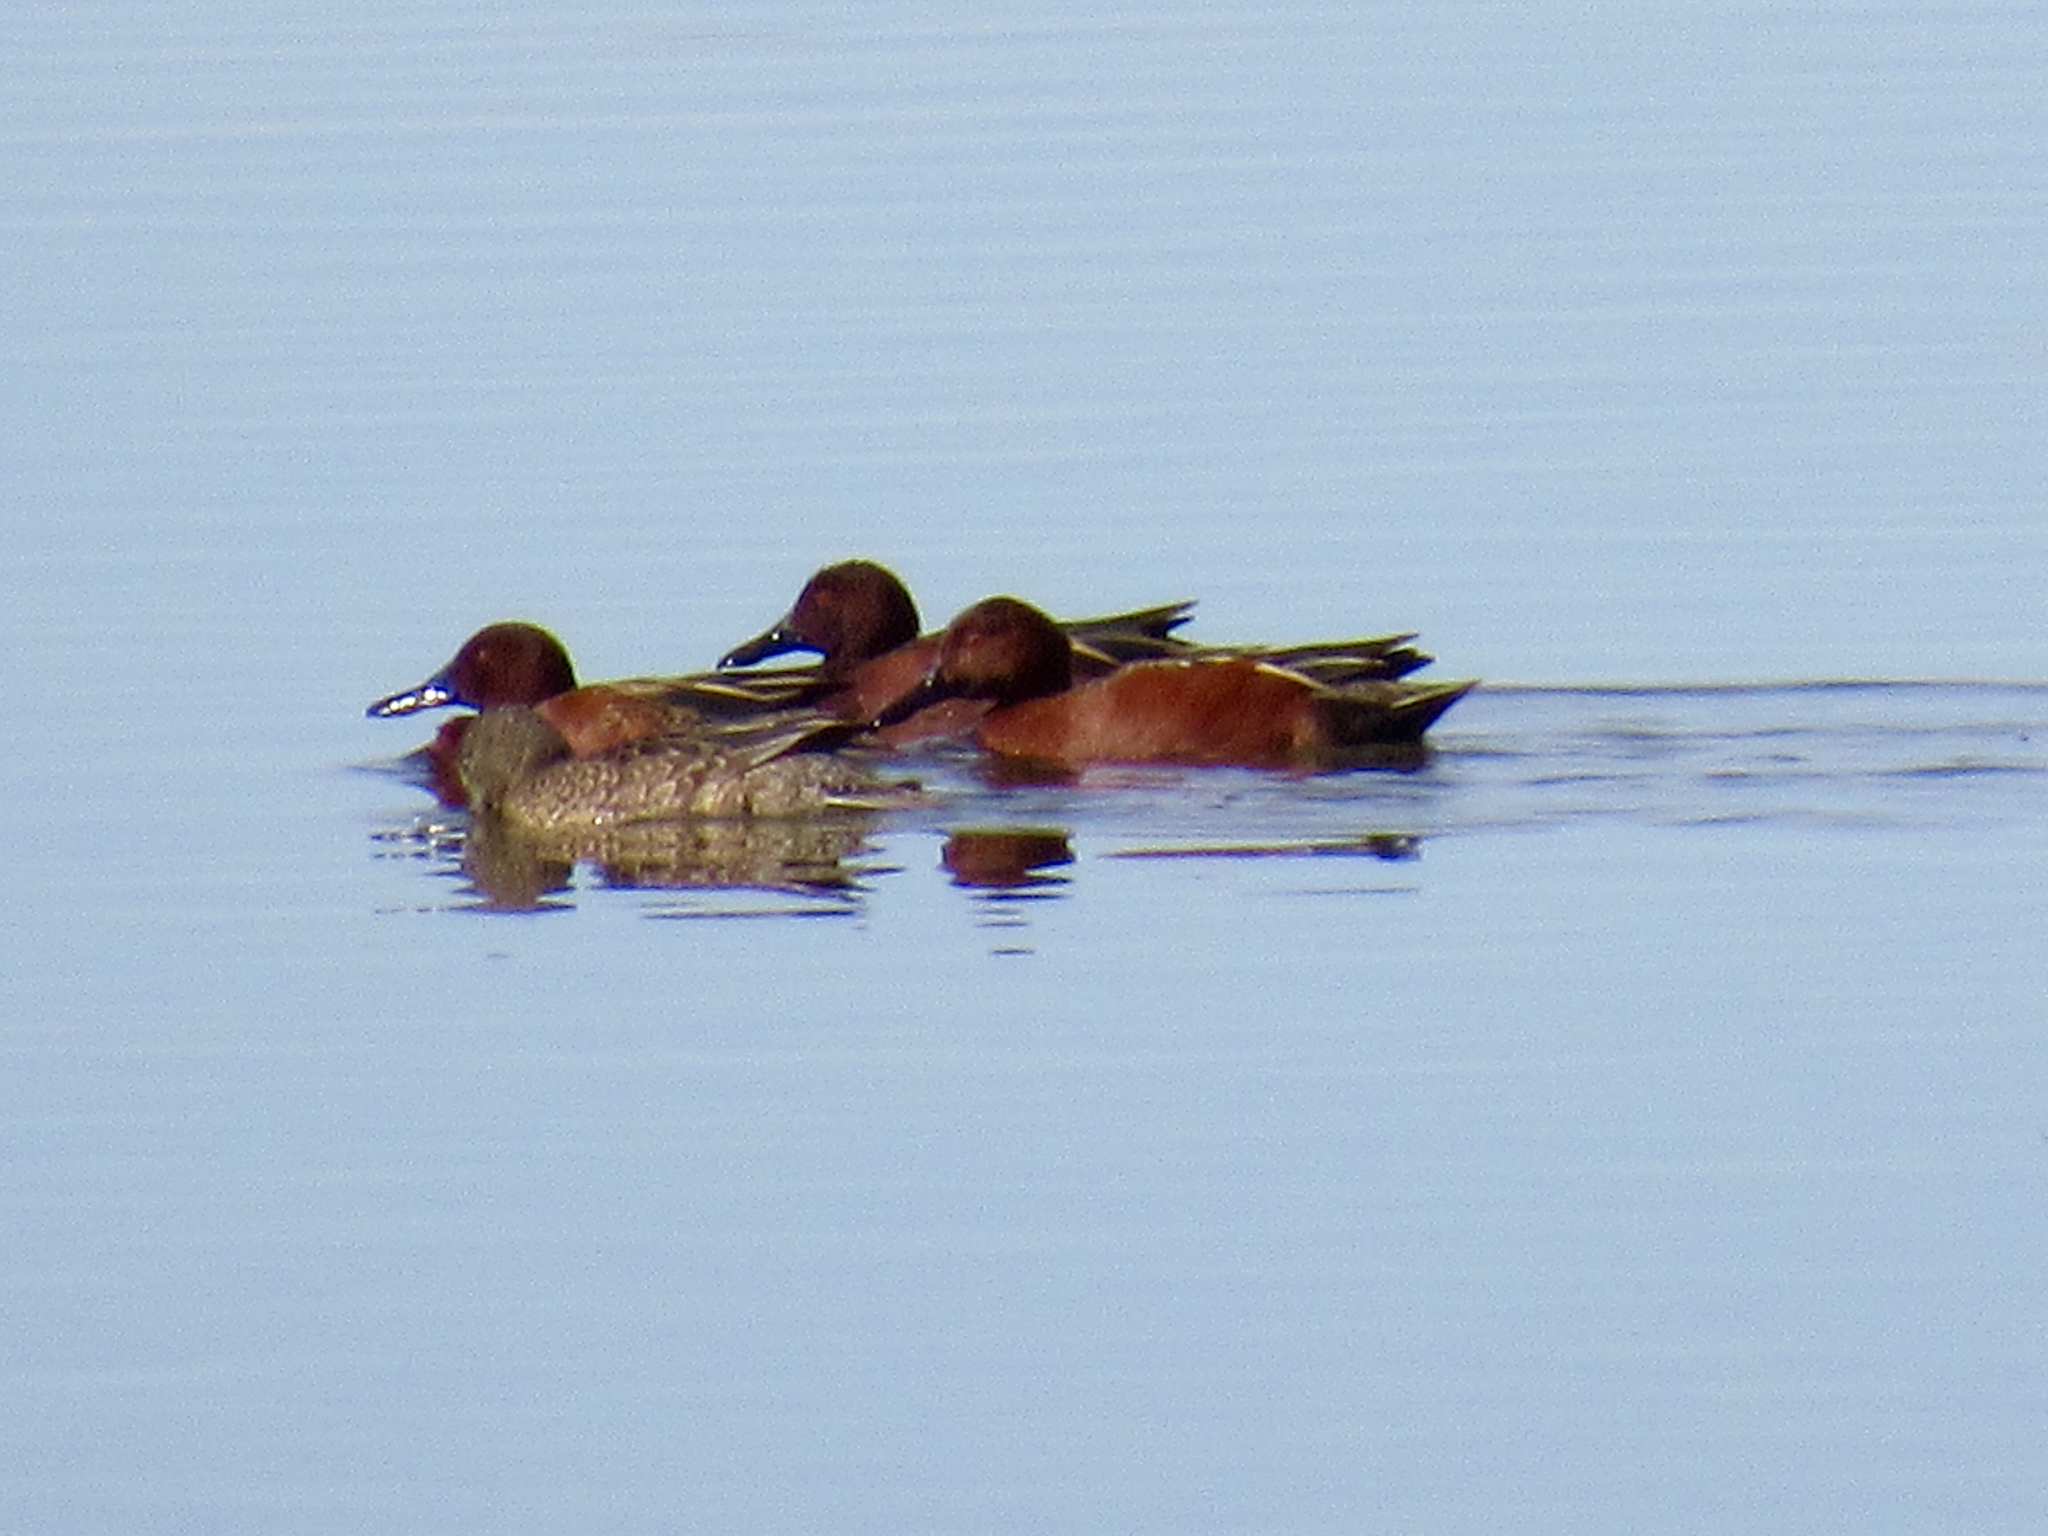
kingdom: Animalia
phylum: Chordata
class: Aves
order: Anseriformes
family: Anatidae
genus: Spatula
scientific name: Spatula cyanoptera
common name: Cinnamon teal
